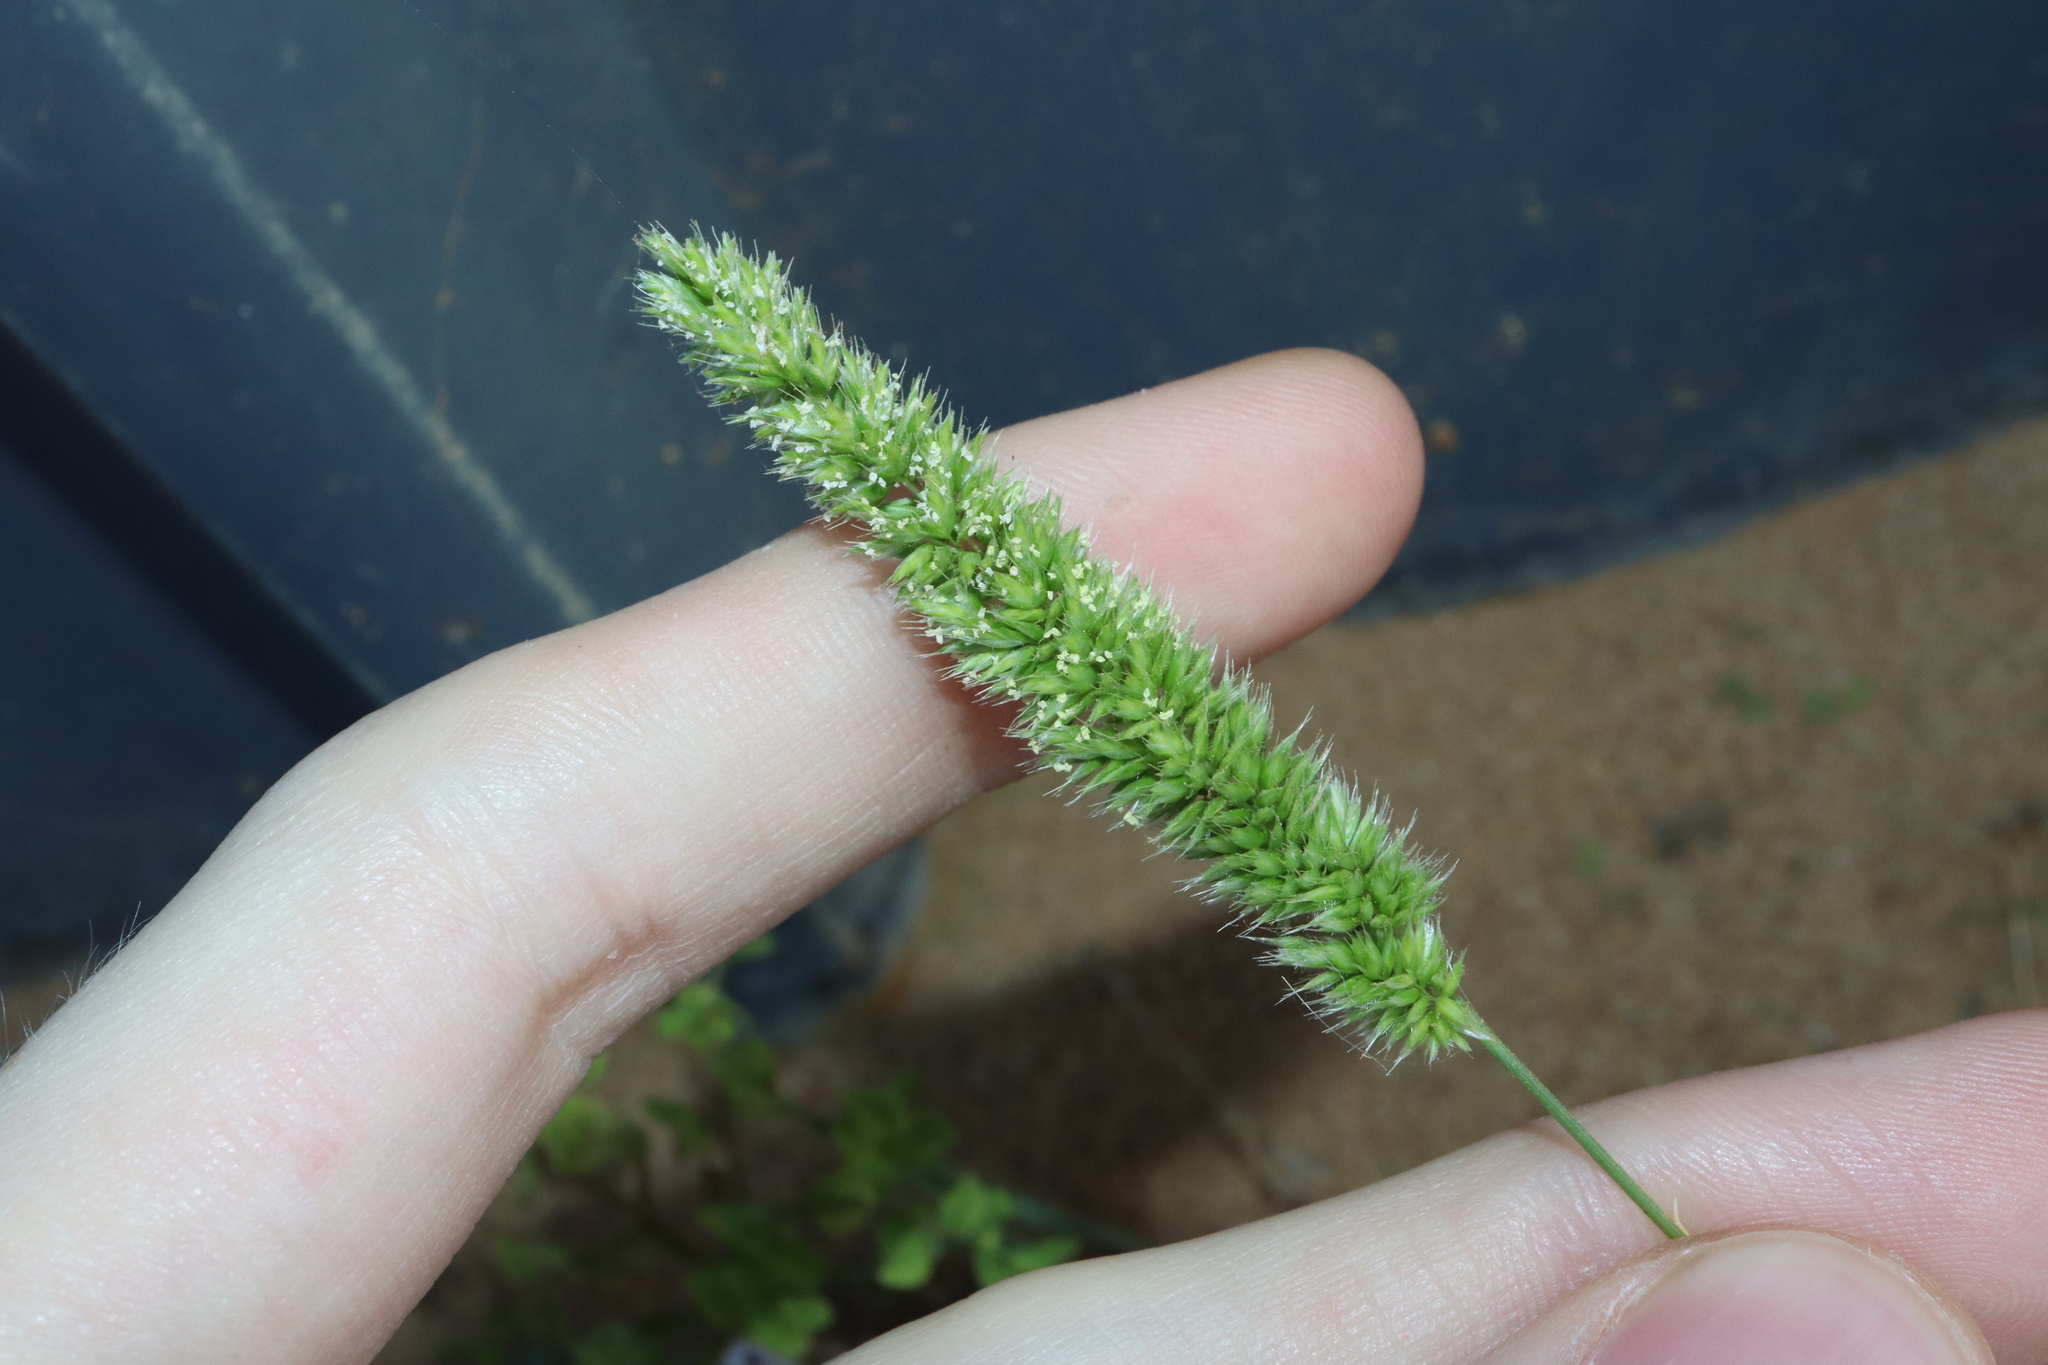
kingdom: Plantae
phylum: Tracheophyta
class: Liliopsida
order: Poales
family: Poaceae
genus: Rostraria
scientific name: Rostraria cristata
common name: Mediterranean hair-grass
